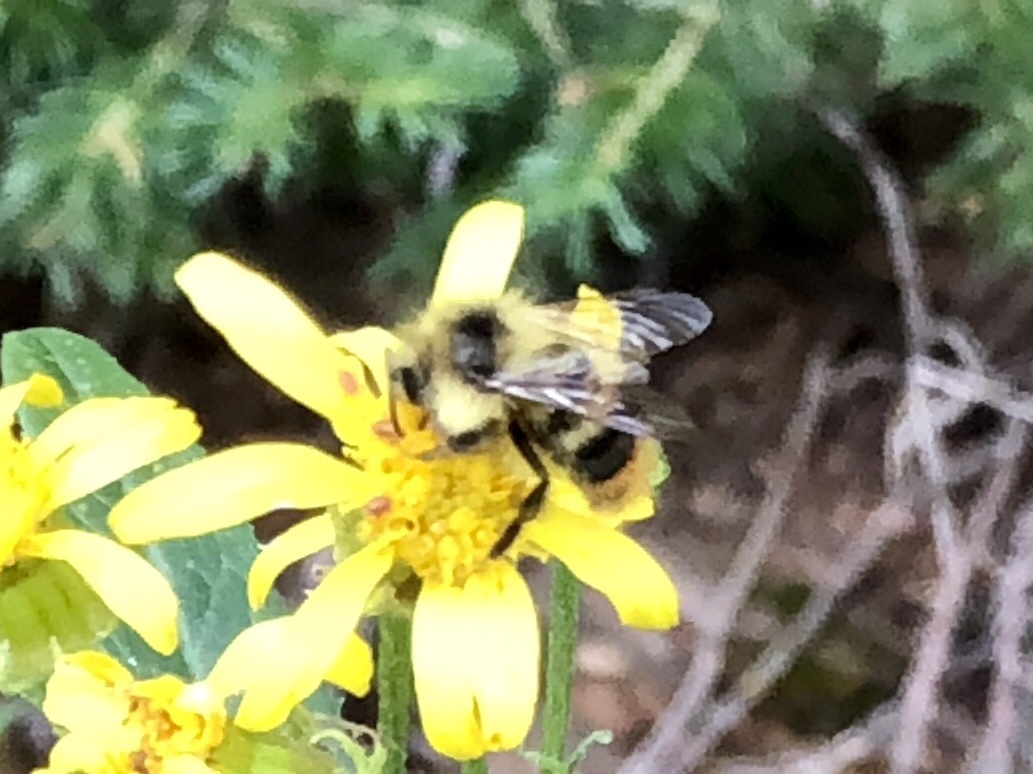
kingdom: Animalia
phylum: Arthropoda
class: Insecta
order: Hymenoptera
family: Apidae
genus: Bombus
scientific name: Bombus mixtus
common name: Fuzzy-horned bumble bee
